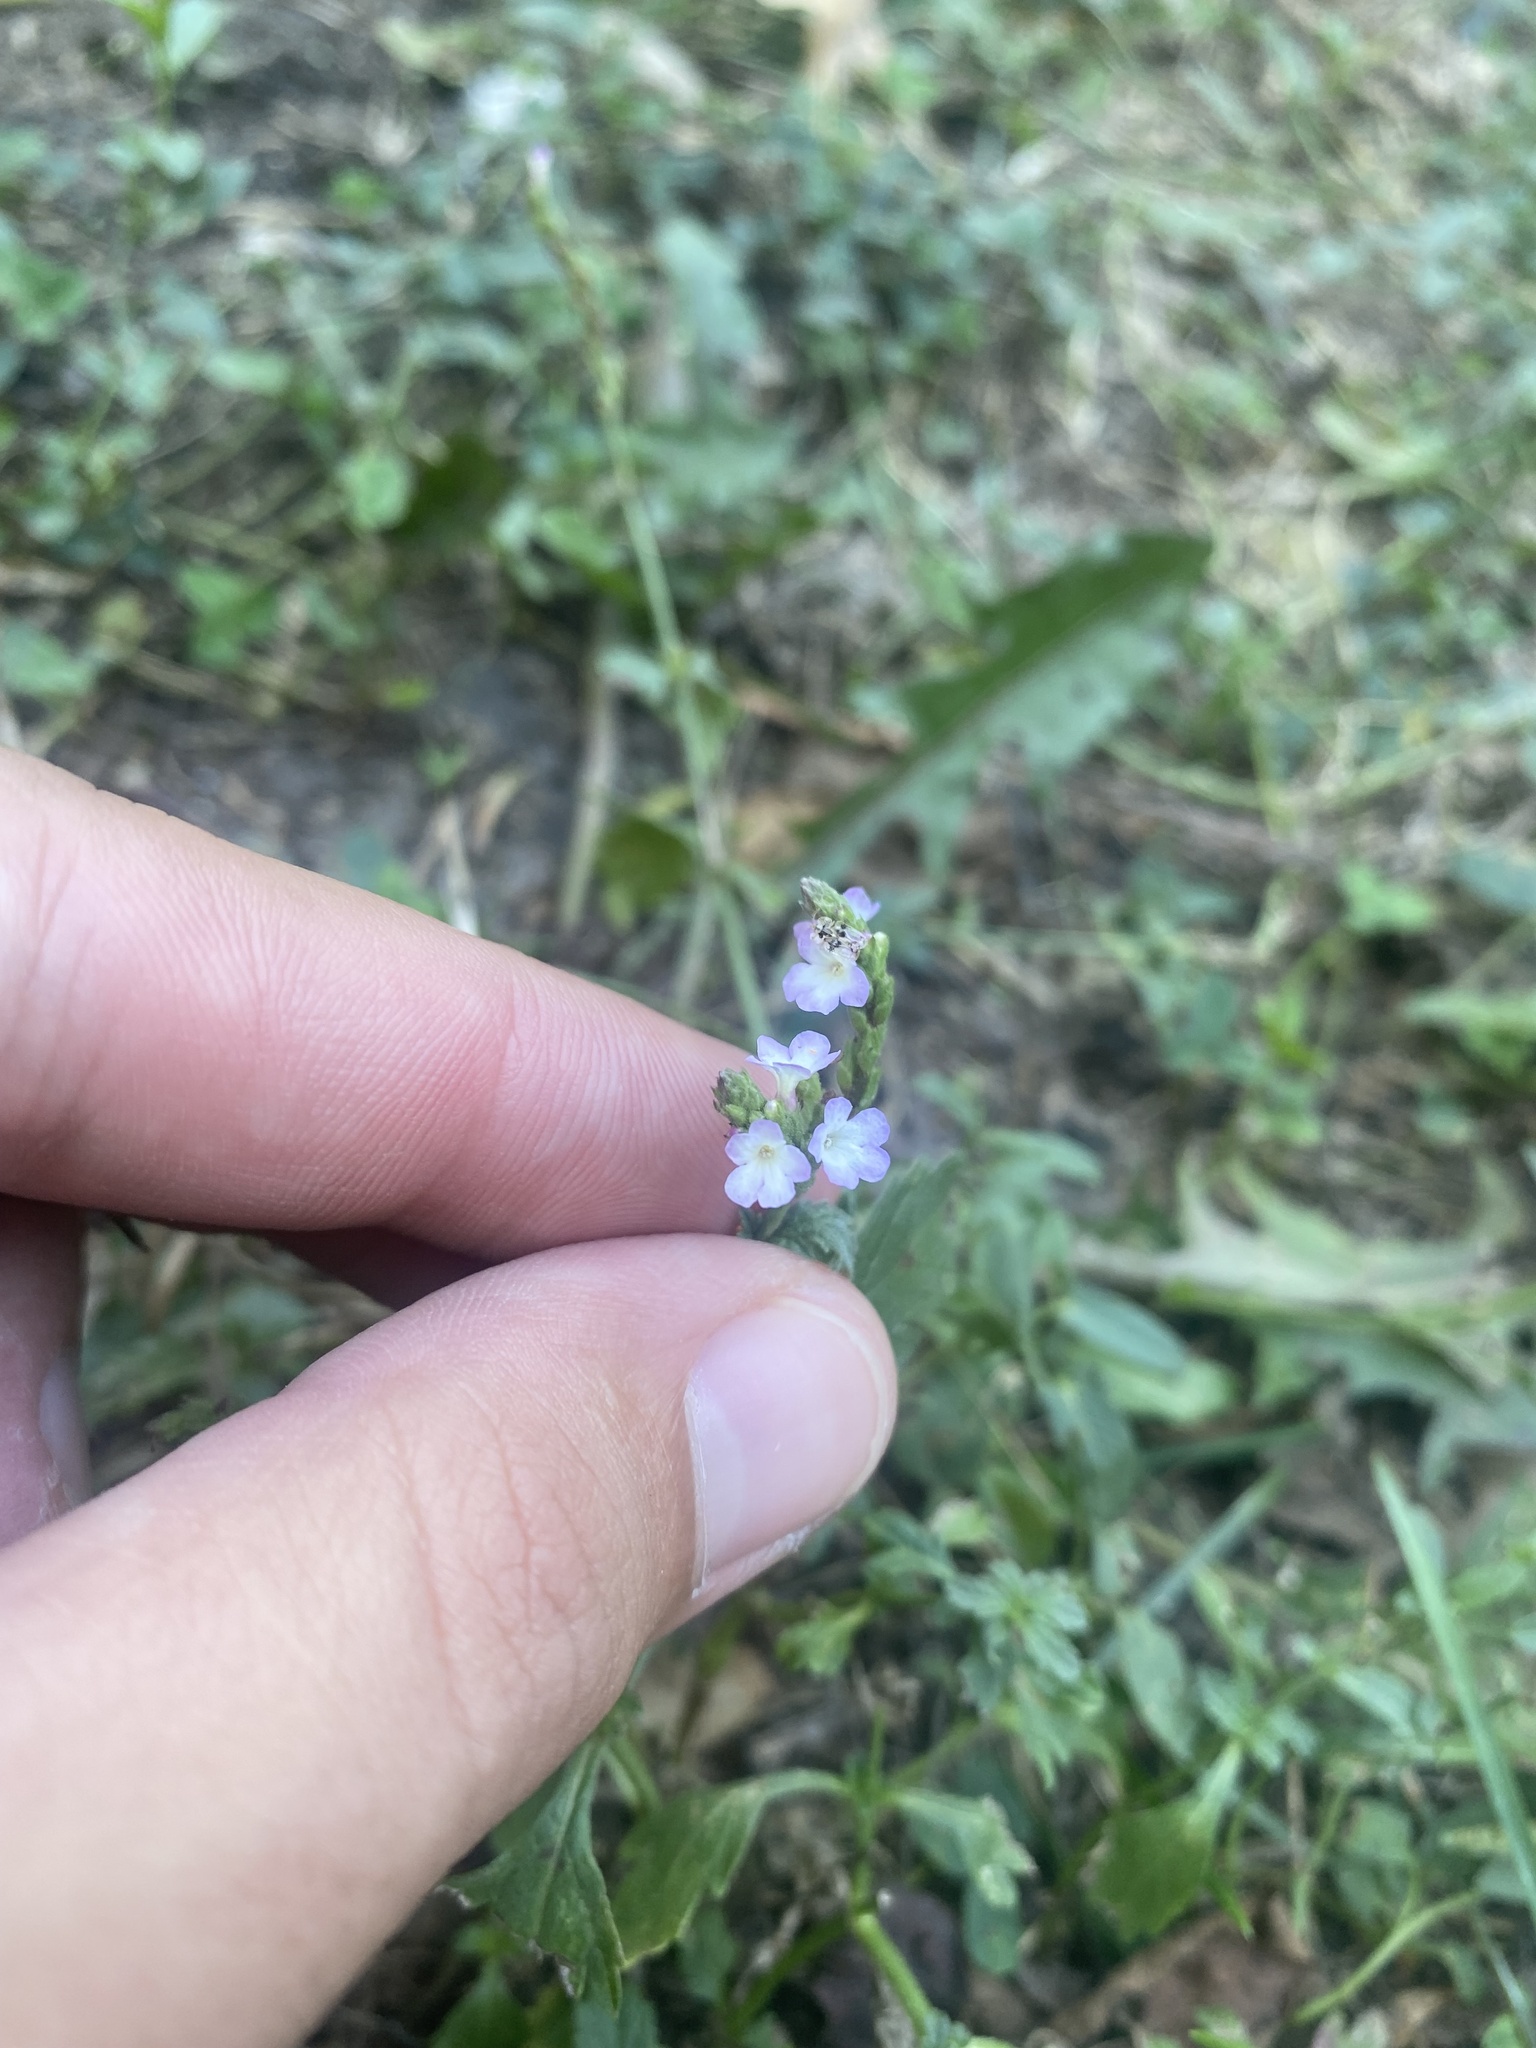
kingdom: Plantae
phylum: Tracheophyta
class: Magnoliopsida
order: Lamiales
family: Verbenaceae
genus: Verbena
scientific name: Verbena officinalis
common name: Vervain
